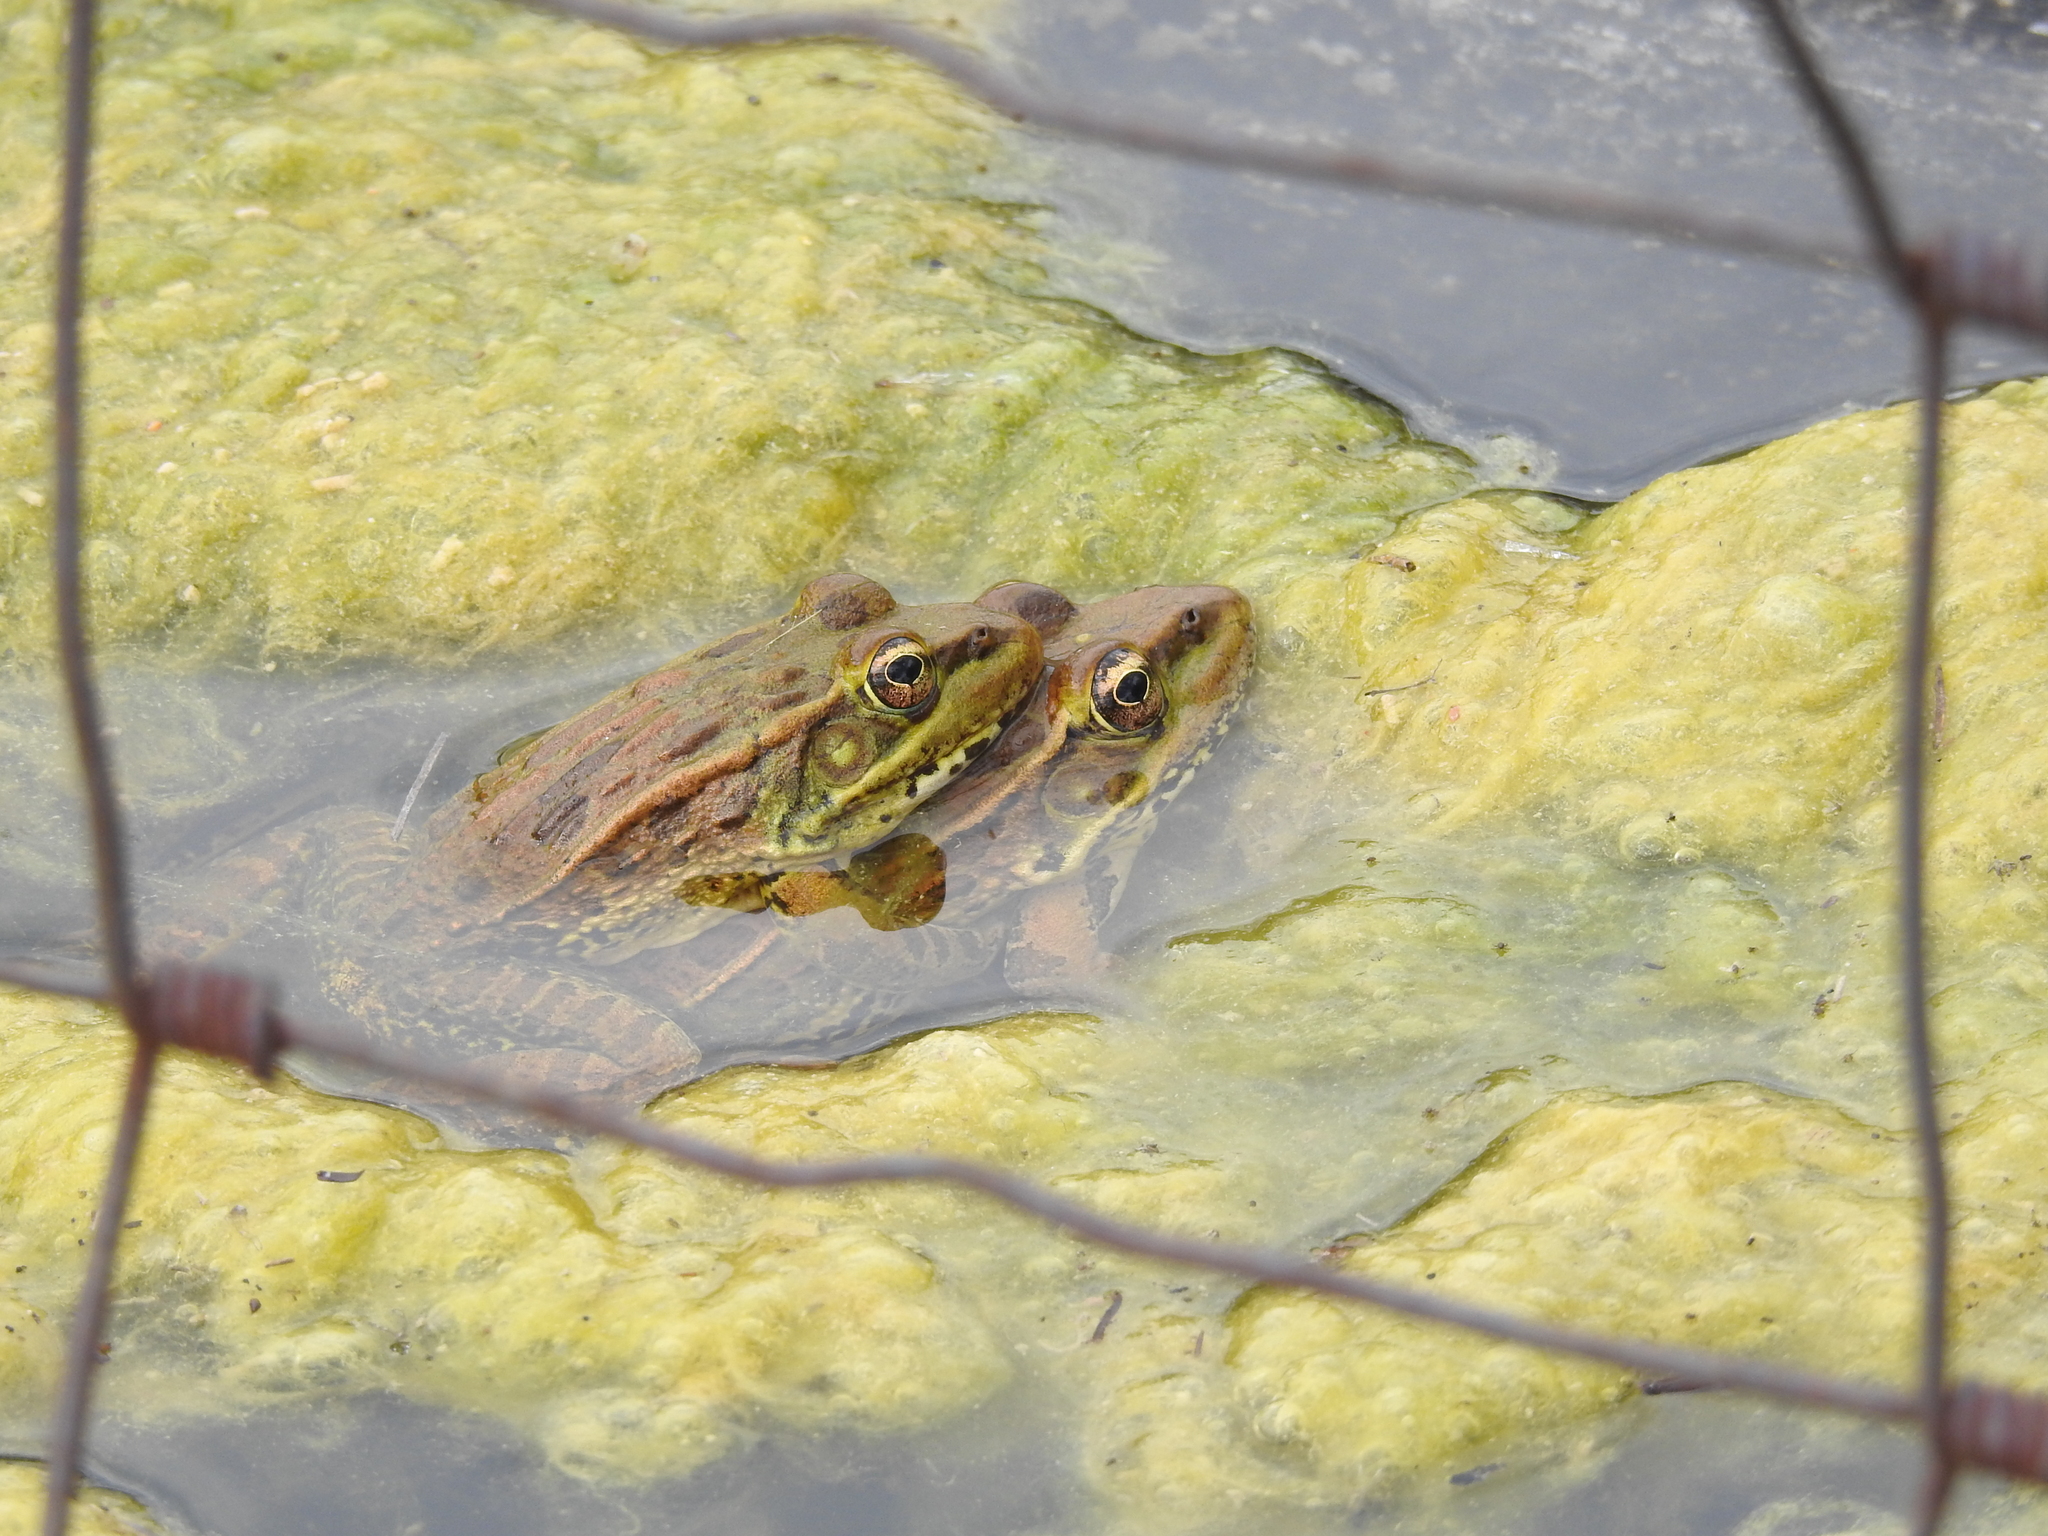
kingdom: Animalia
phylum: Chordata
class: Amphibia
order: Anura
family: Ranidae
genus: Lithobates
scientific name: Lithobates yavapaiensis
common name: Lowland leopard frog
